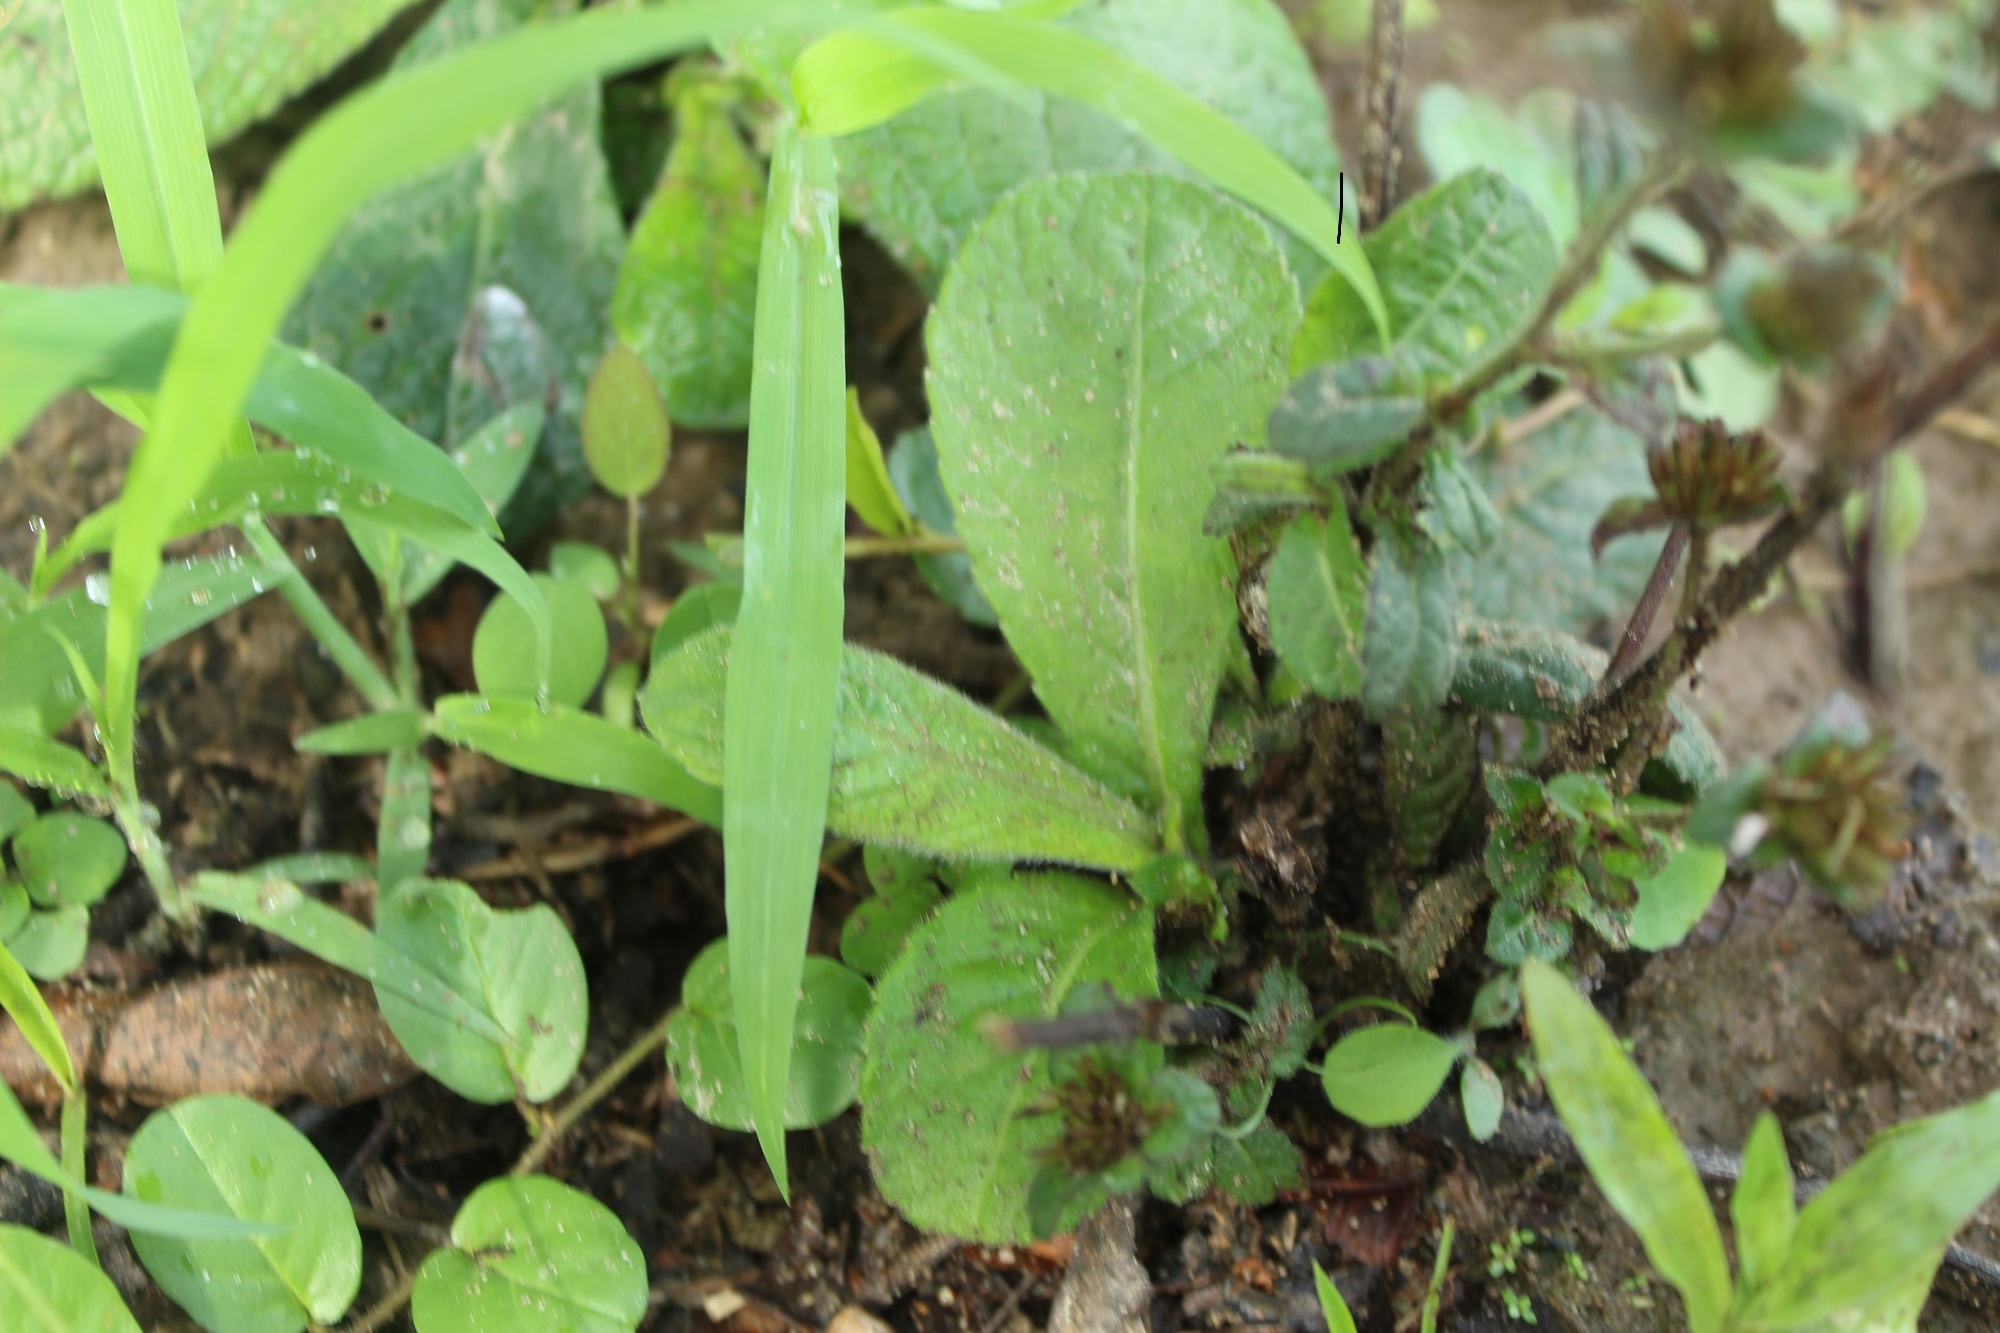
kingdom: Plantae
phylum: Tracheophyta
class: Magnoliopsida
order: Asterales
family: Asteraceae
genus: Elephantopus
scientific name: Elephantopus mollis
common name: Soft elephantsfoot
